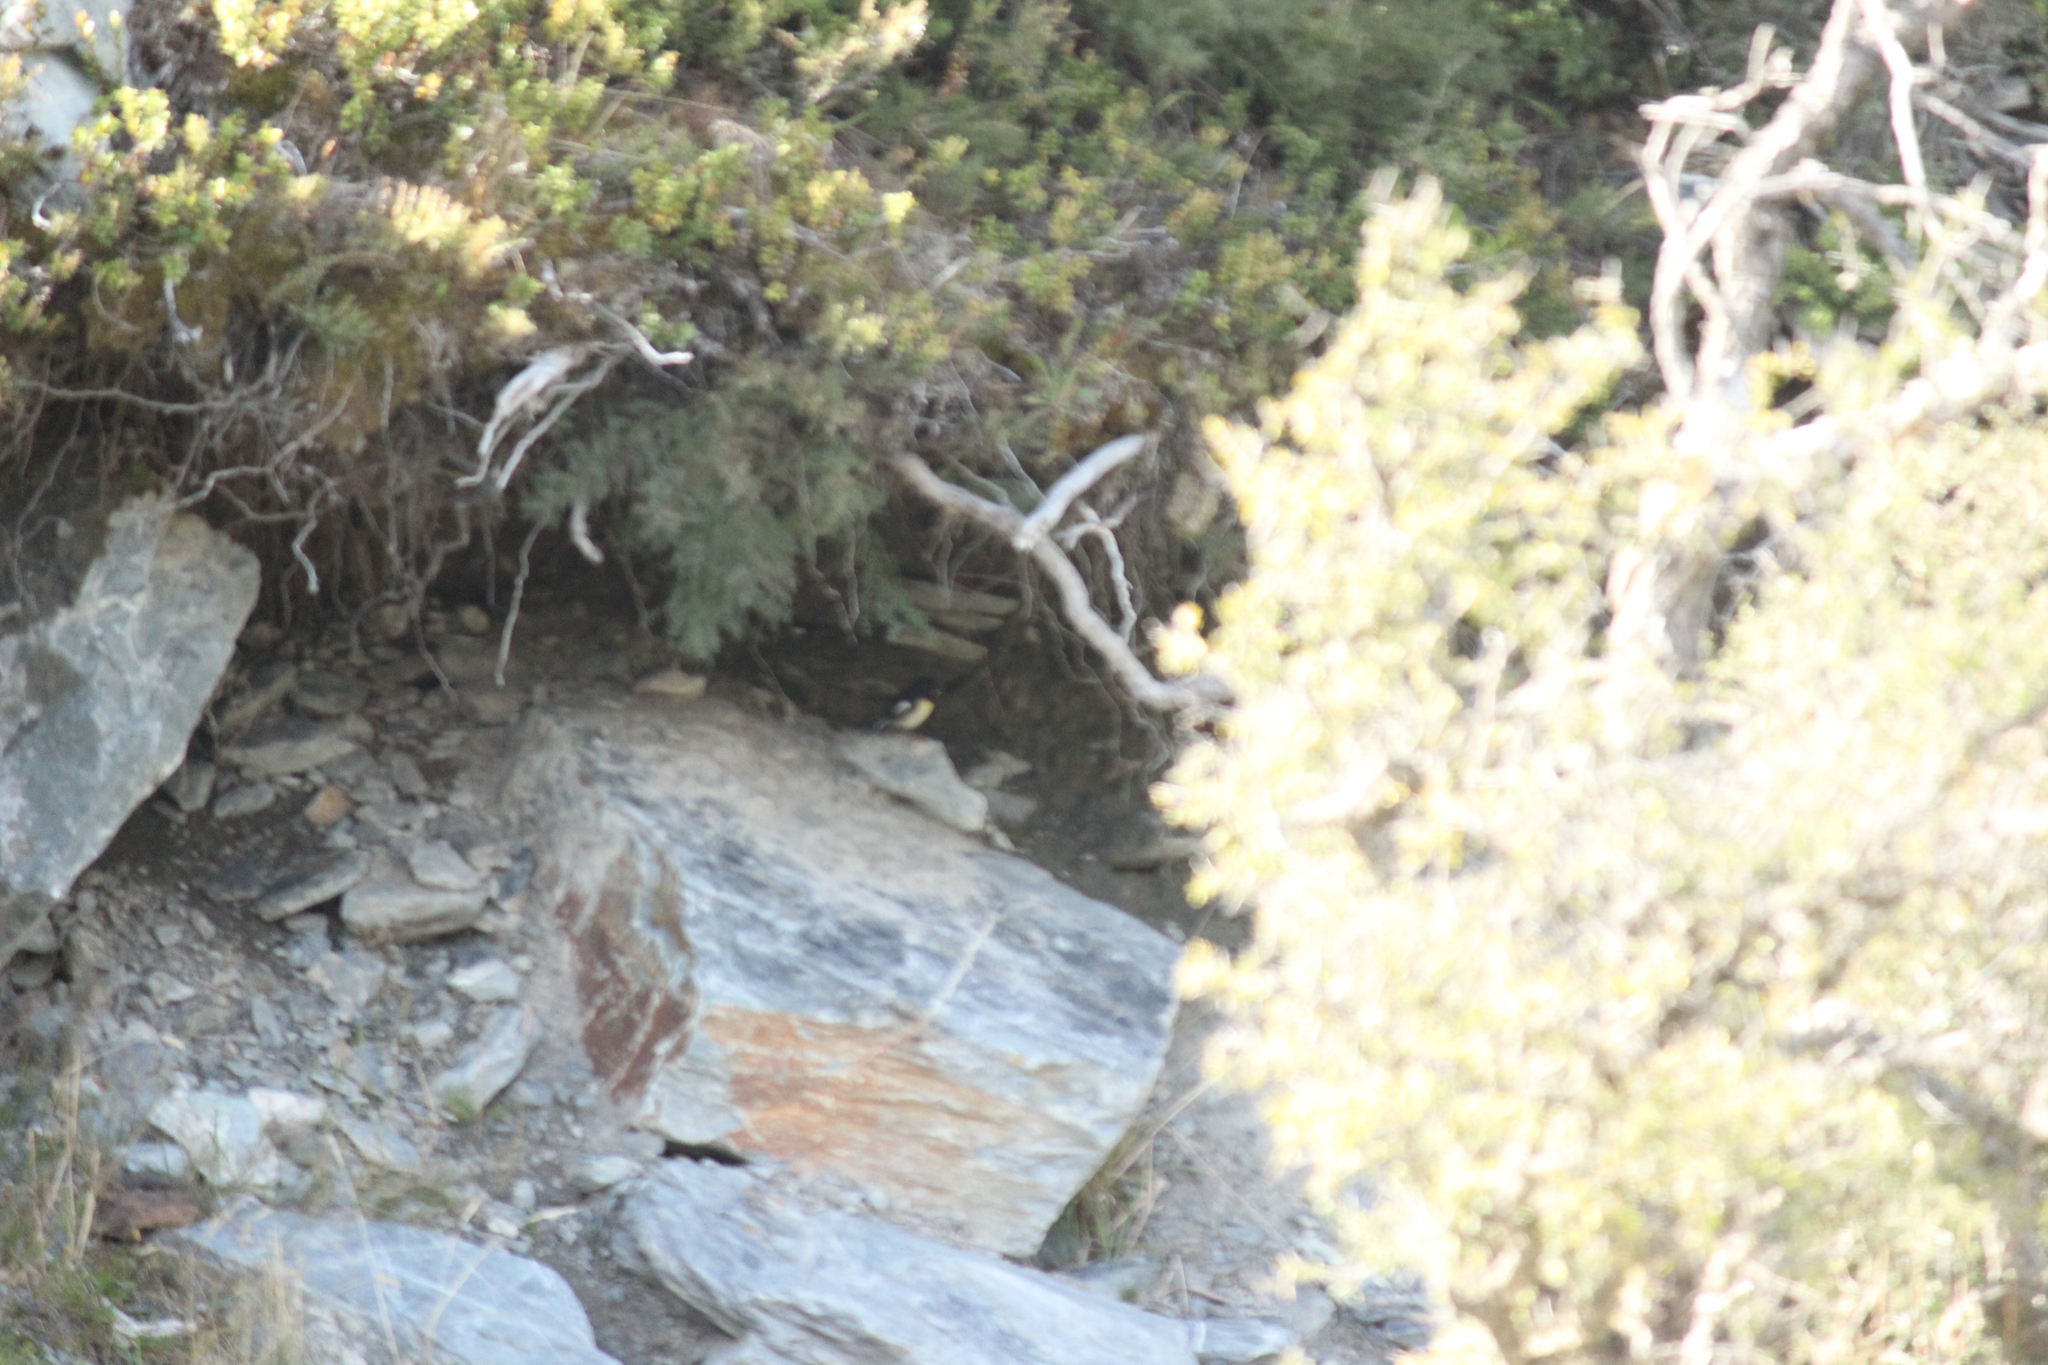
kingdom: Animalia
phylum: Chordata
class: Aves
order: Passeriformes
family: Petroicidae
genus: Petroica
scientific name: Petroica macrocephala
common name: Tomtit
